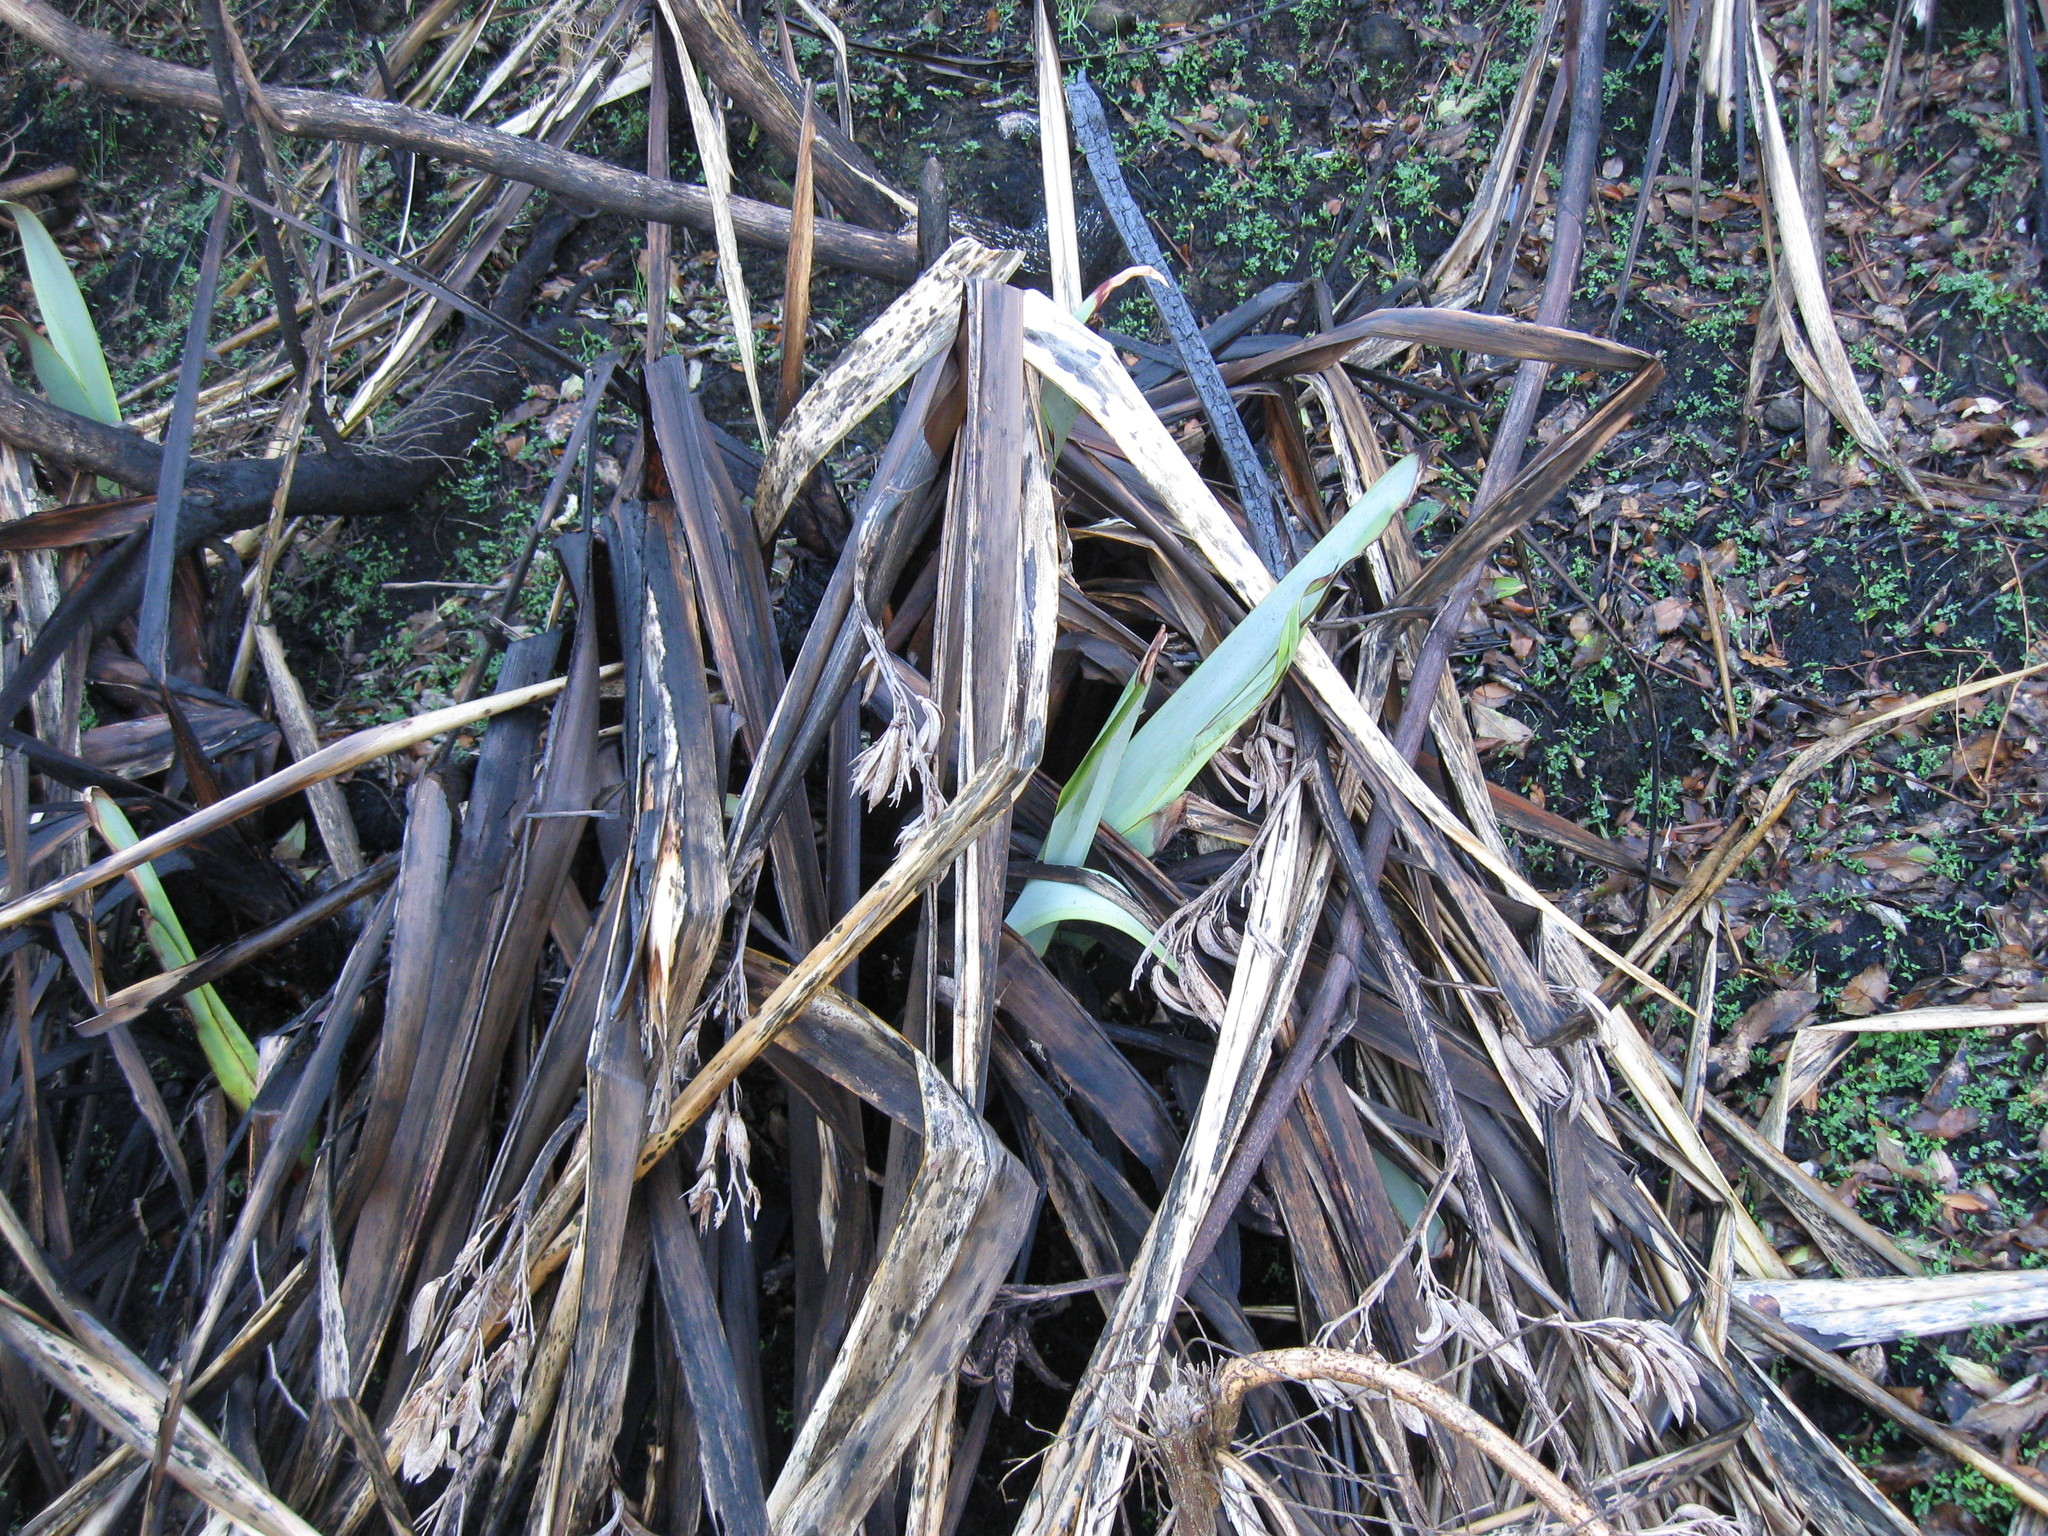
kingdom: Plantae
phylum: Tracheophyta
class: Liliopsida
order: Asparagales
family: Asphodelaceae
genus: Phormium
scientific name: Phormium tenax
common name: New zealand flax
